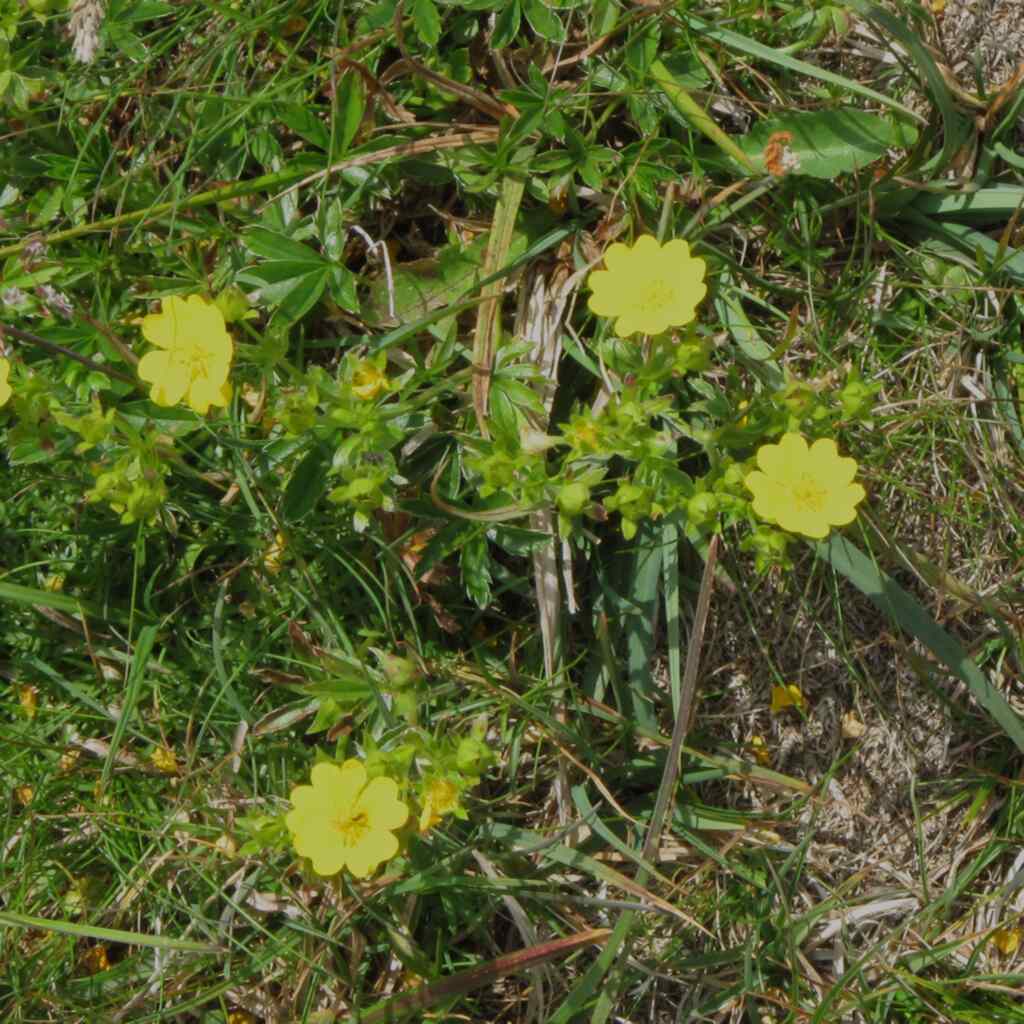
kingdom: Plantae
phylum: Tracheophyta
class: Magnoliopsida
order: Rosales
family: Rosaceae
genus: Potentilla
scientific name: Potentilla aurea
